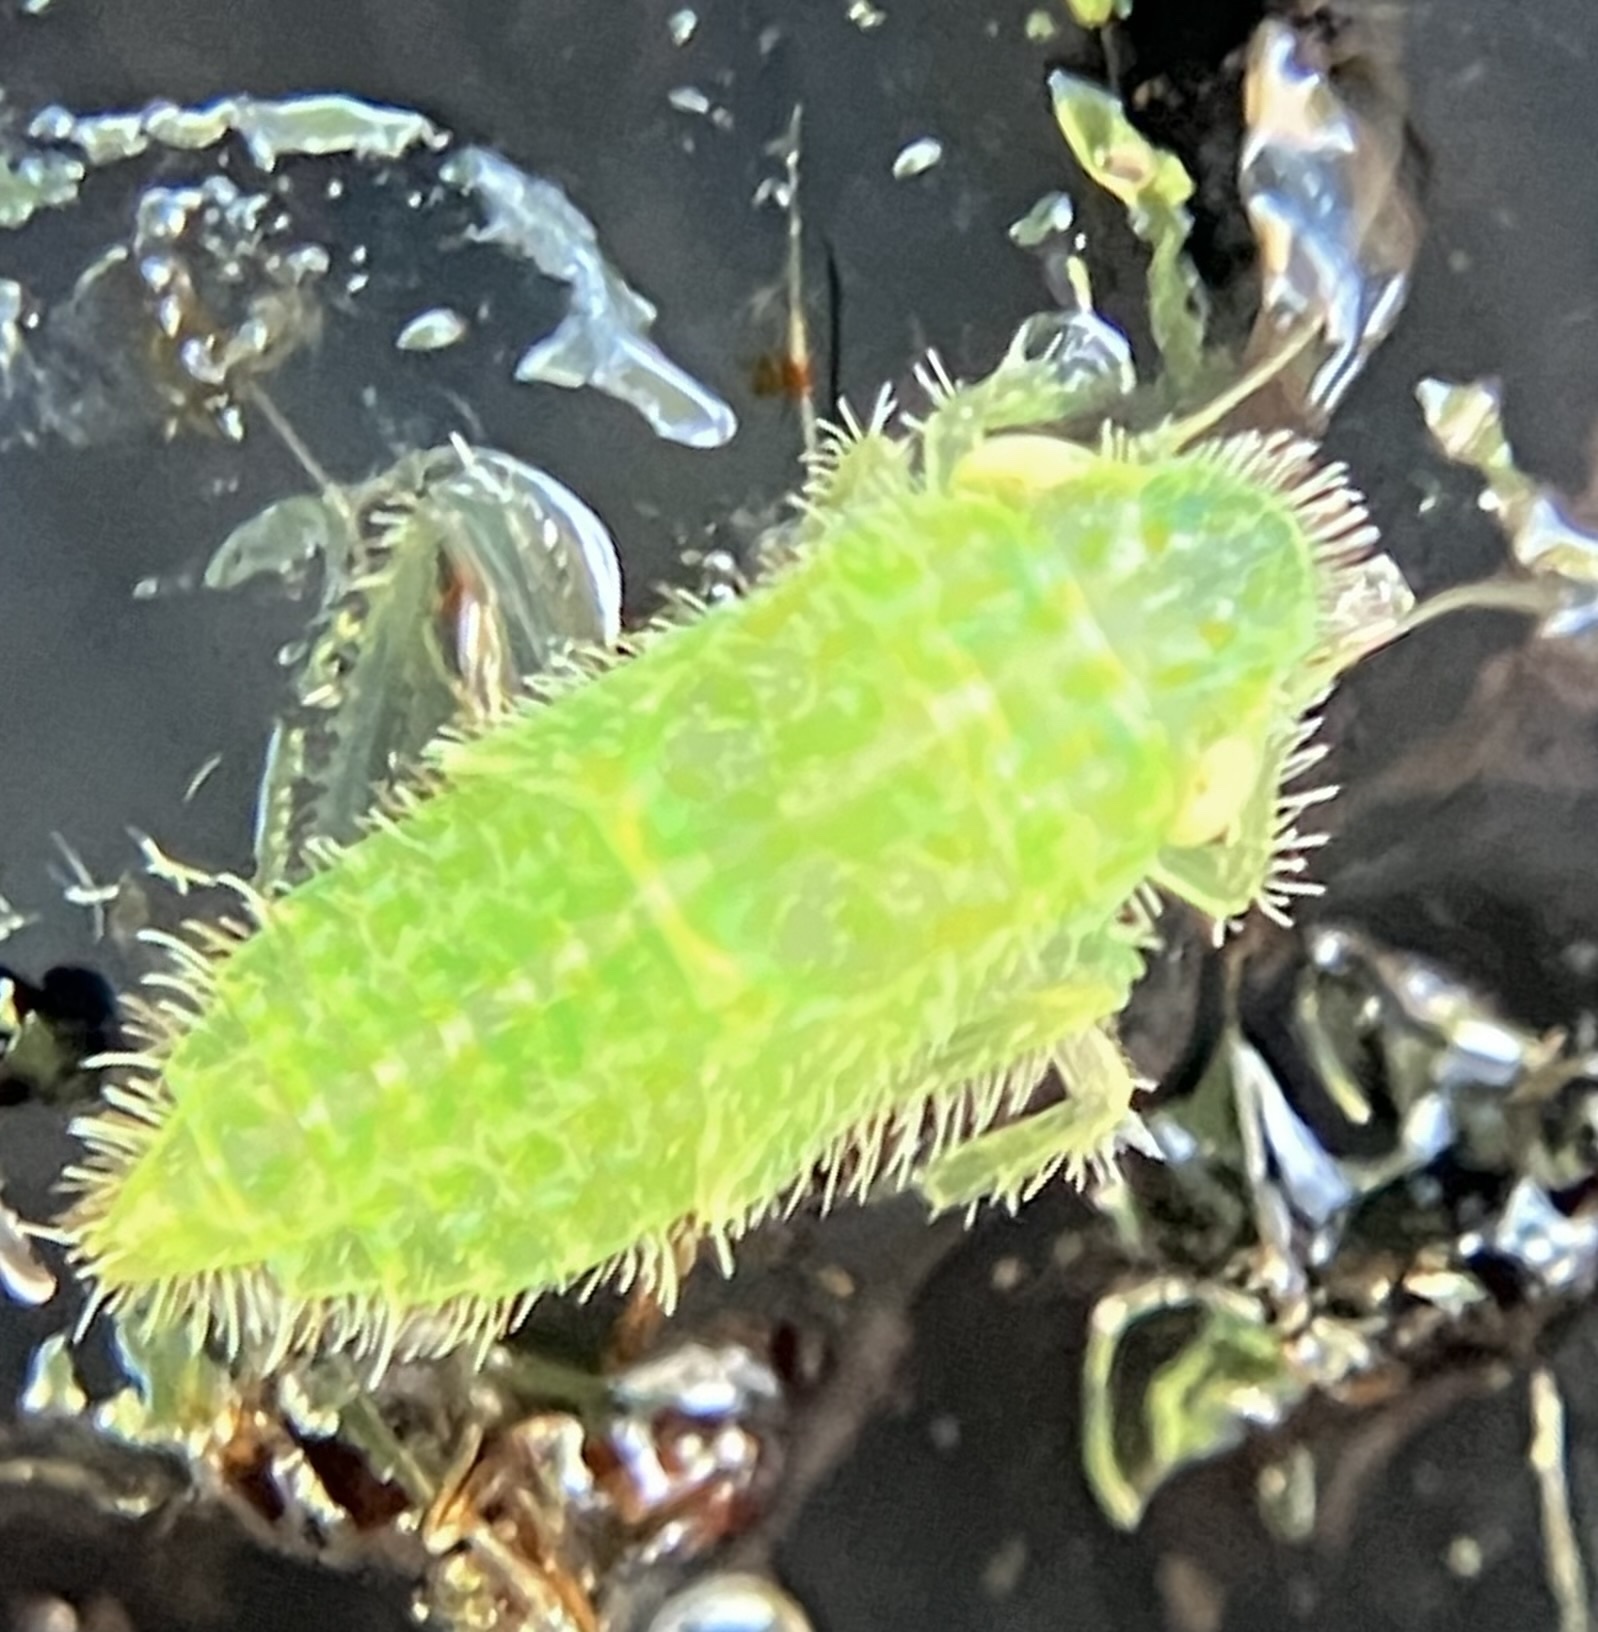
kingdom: Animalia
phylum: Arthropoda
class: Insecta
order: Hemiptera
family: Cicadellidae
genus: Rugosana
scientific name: Rugosana querci
